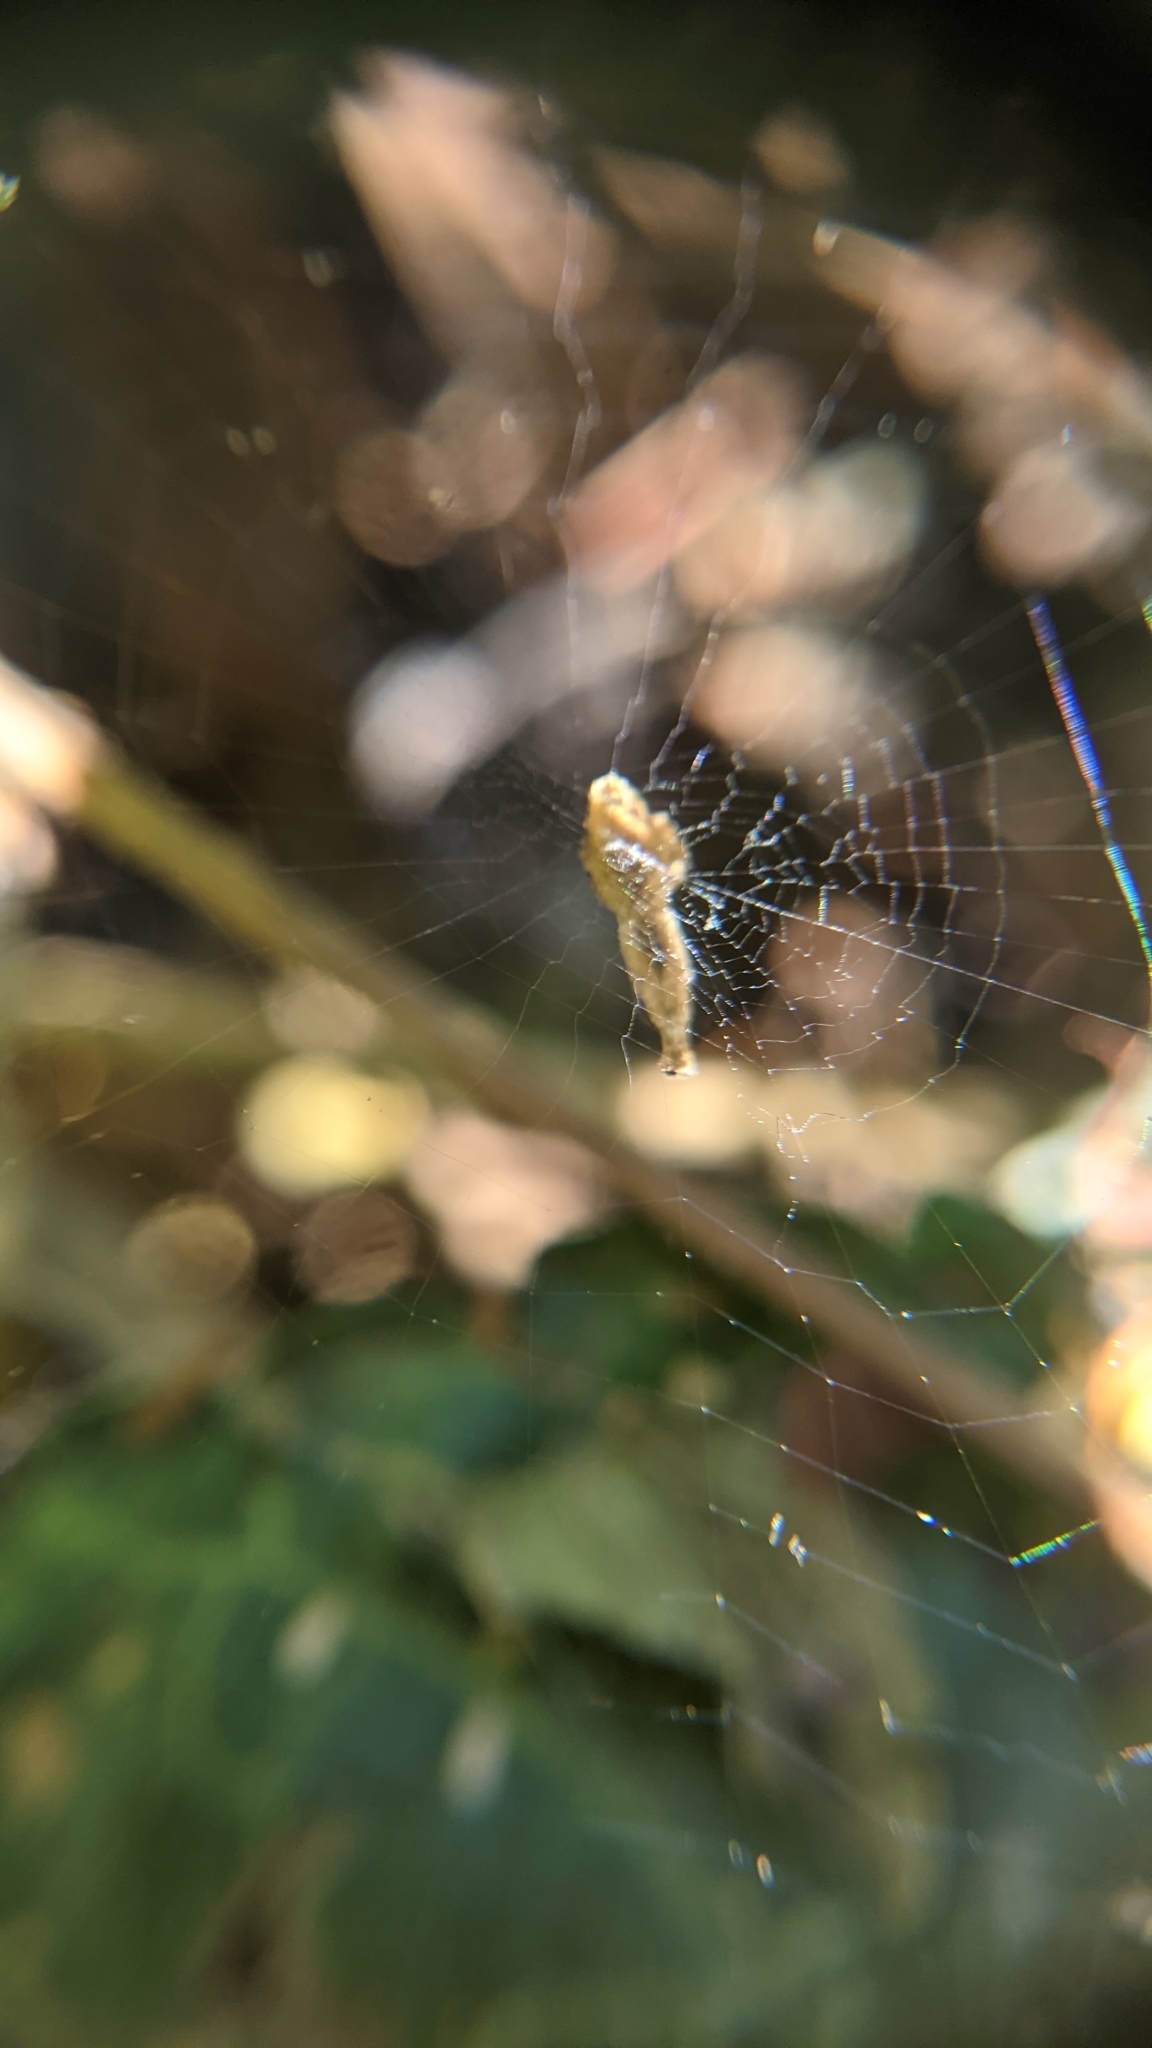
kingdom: Animalia
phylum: Arthropoda
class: Arachnida
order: Araneae
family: Uloboridae
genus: Uloborus
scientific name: Uloborus diversus
